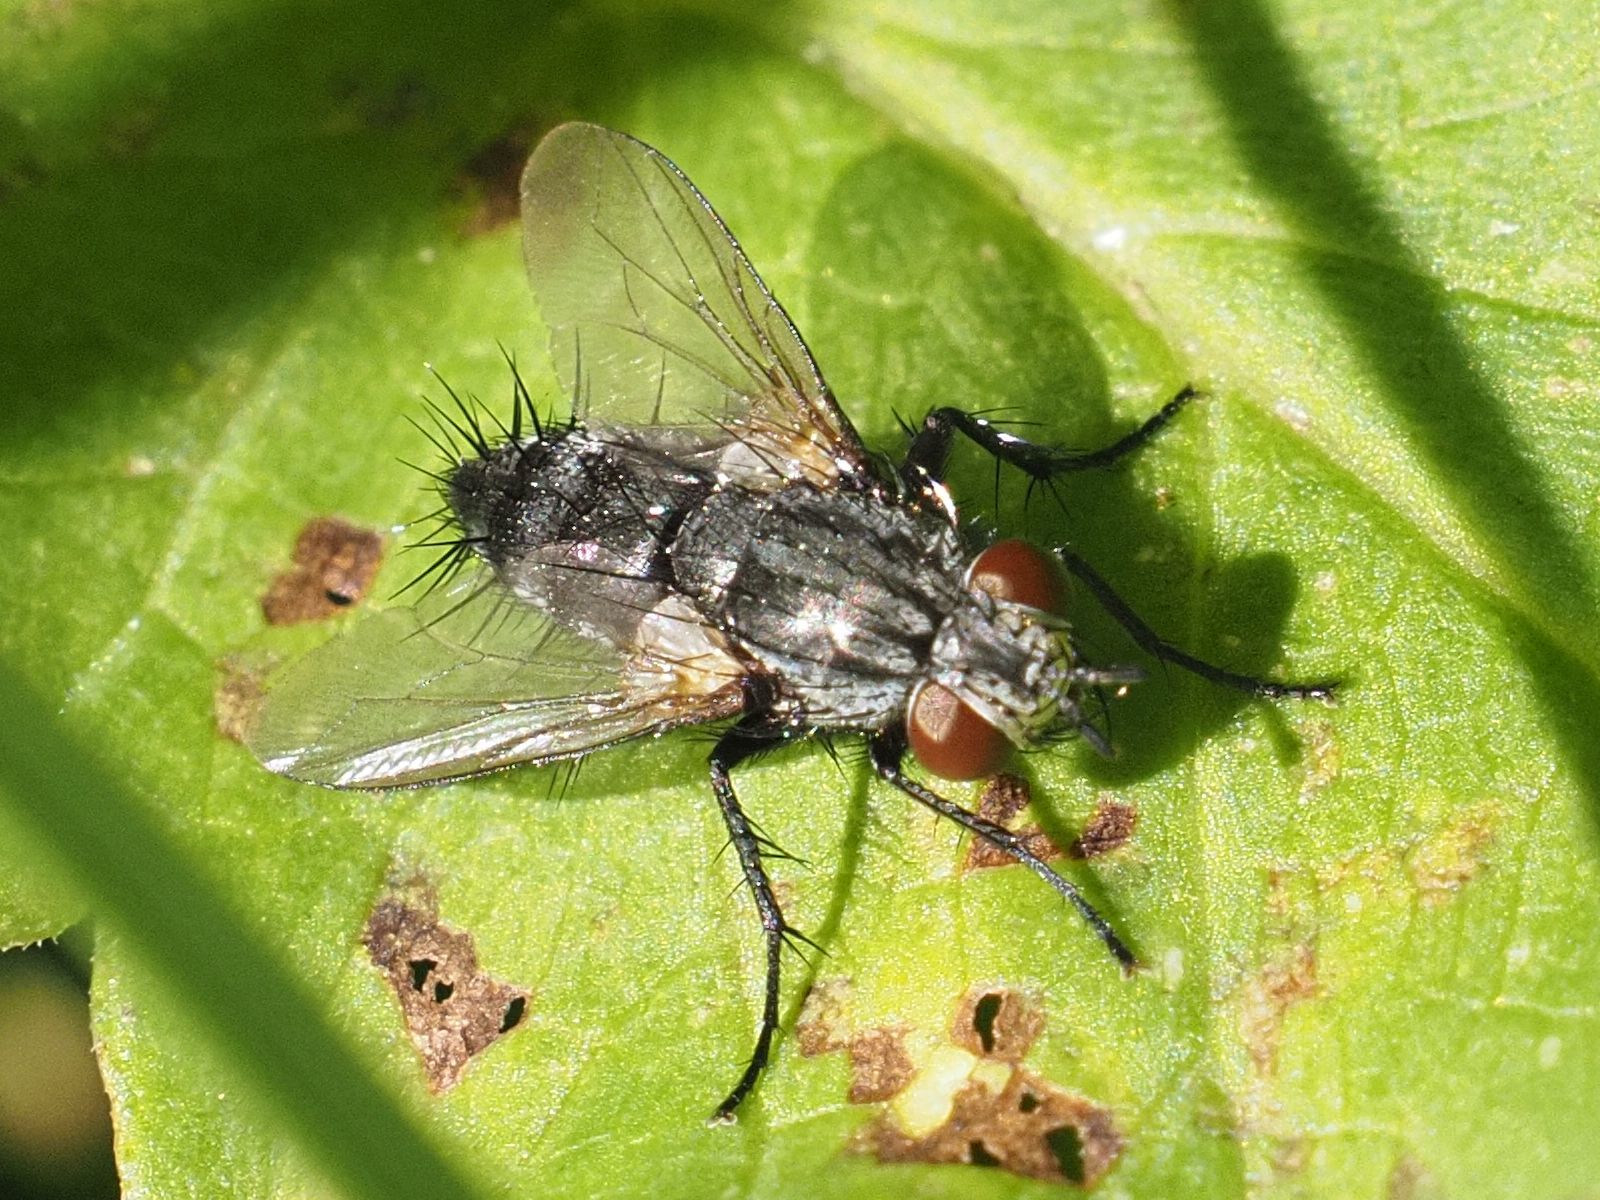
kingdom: Animalia
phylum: Arthropoda
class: Insecta
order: Diptera
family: Tachinidae
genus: Voria
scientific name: Voria ruralis
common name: Parasitic fly
